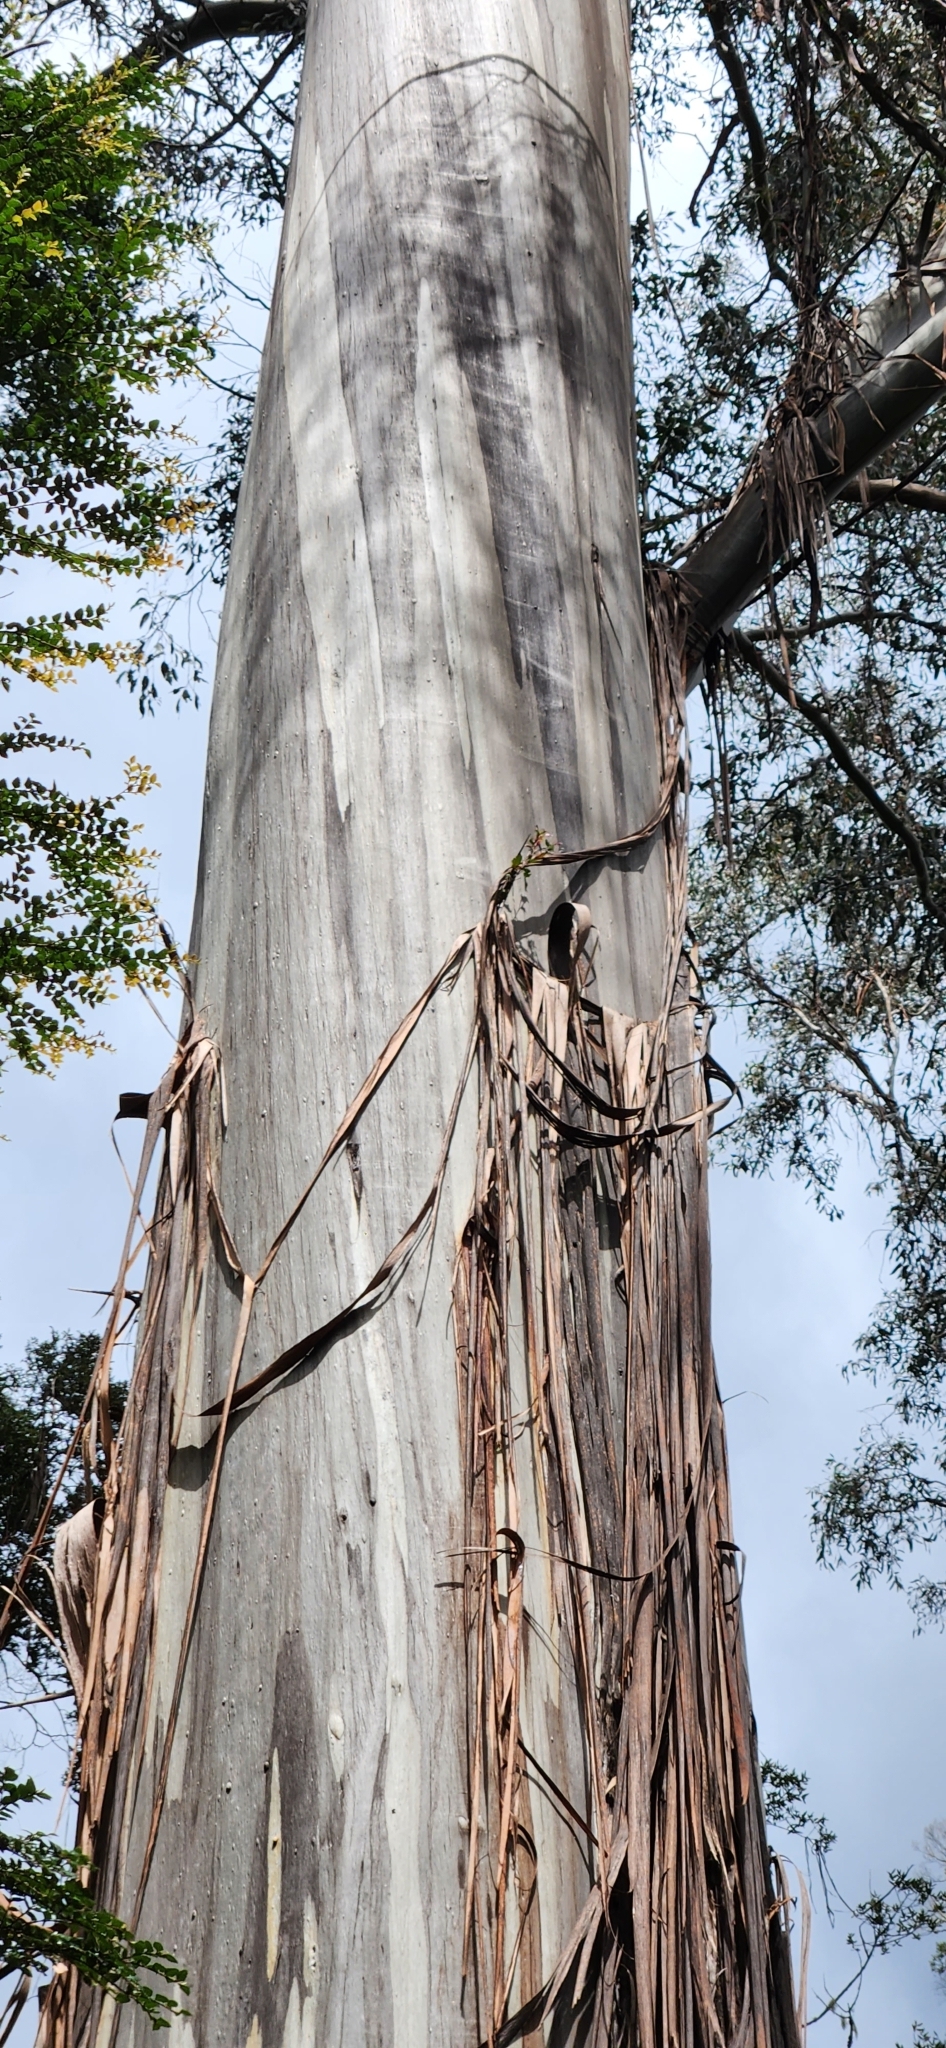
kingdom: Plantae
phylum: Tracheophyta
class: Magnoliopsida
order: Myrtales
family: Myrtaceae
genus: Eucalyptus
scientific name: Eucalyptus regnans
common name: Stringy gum
